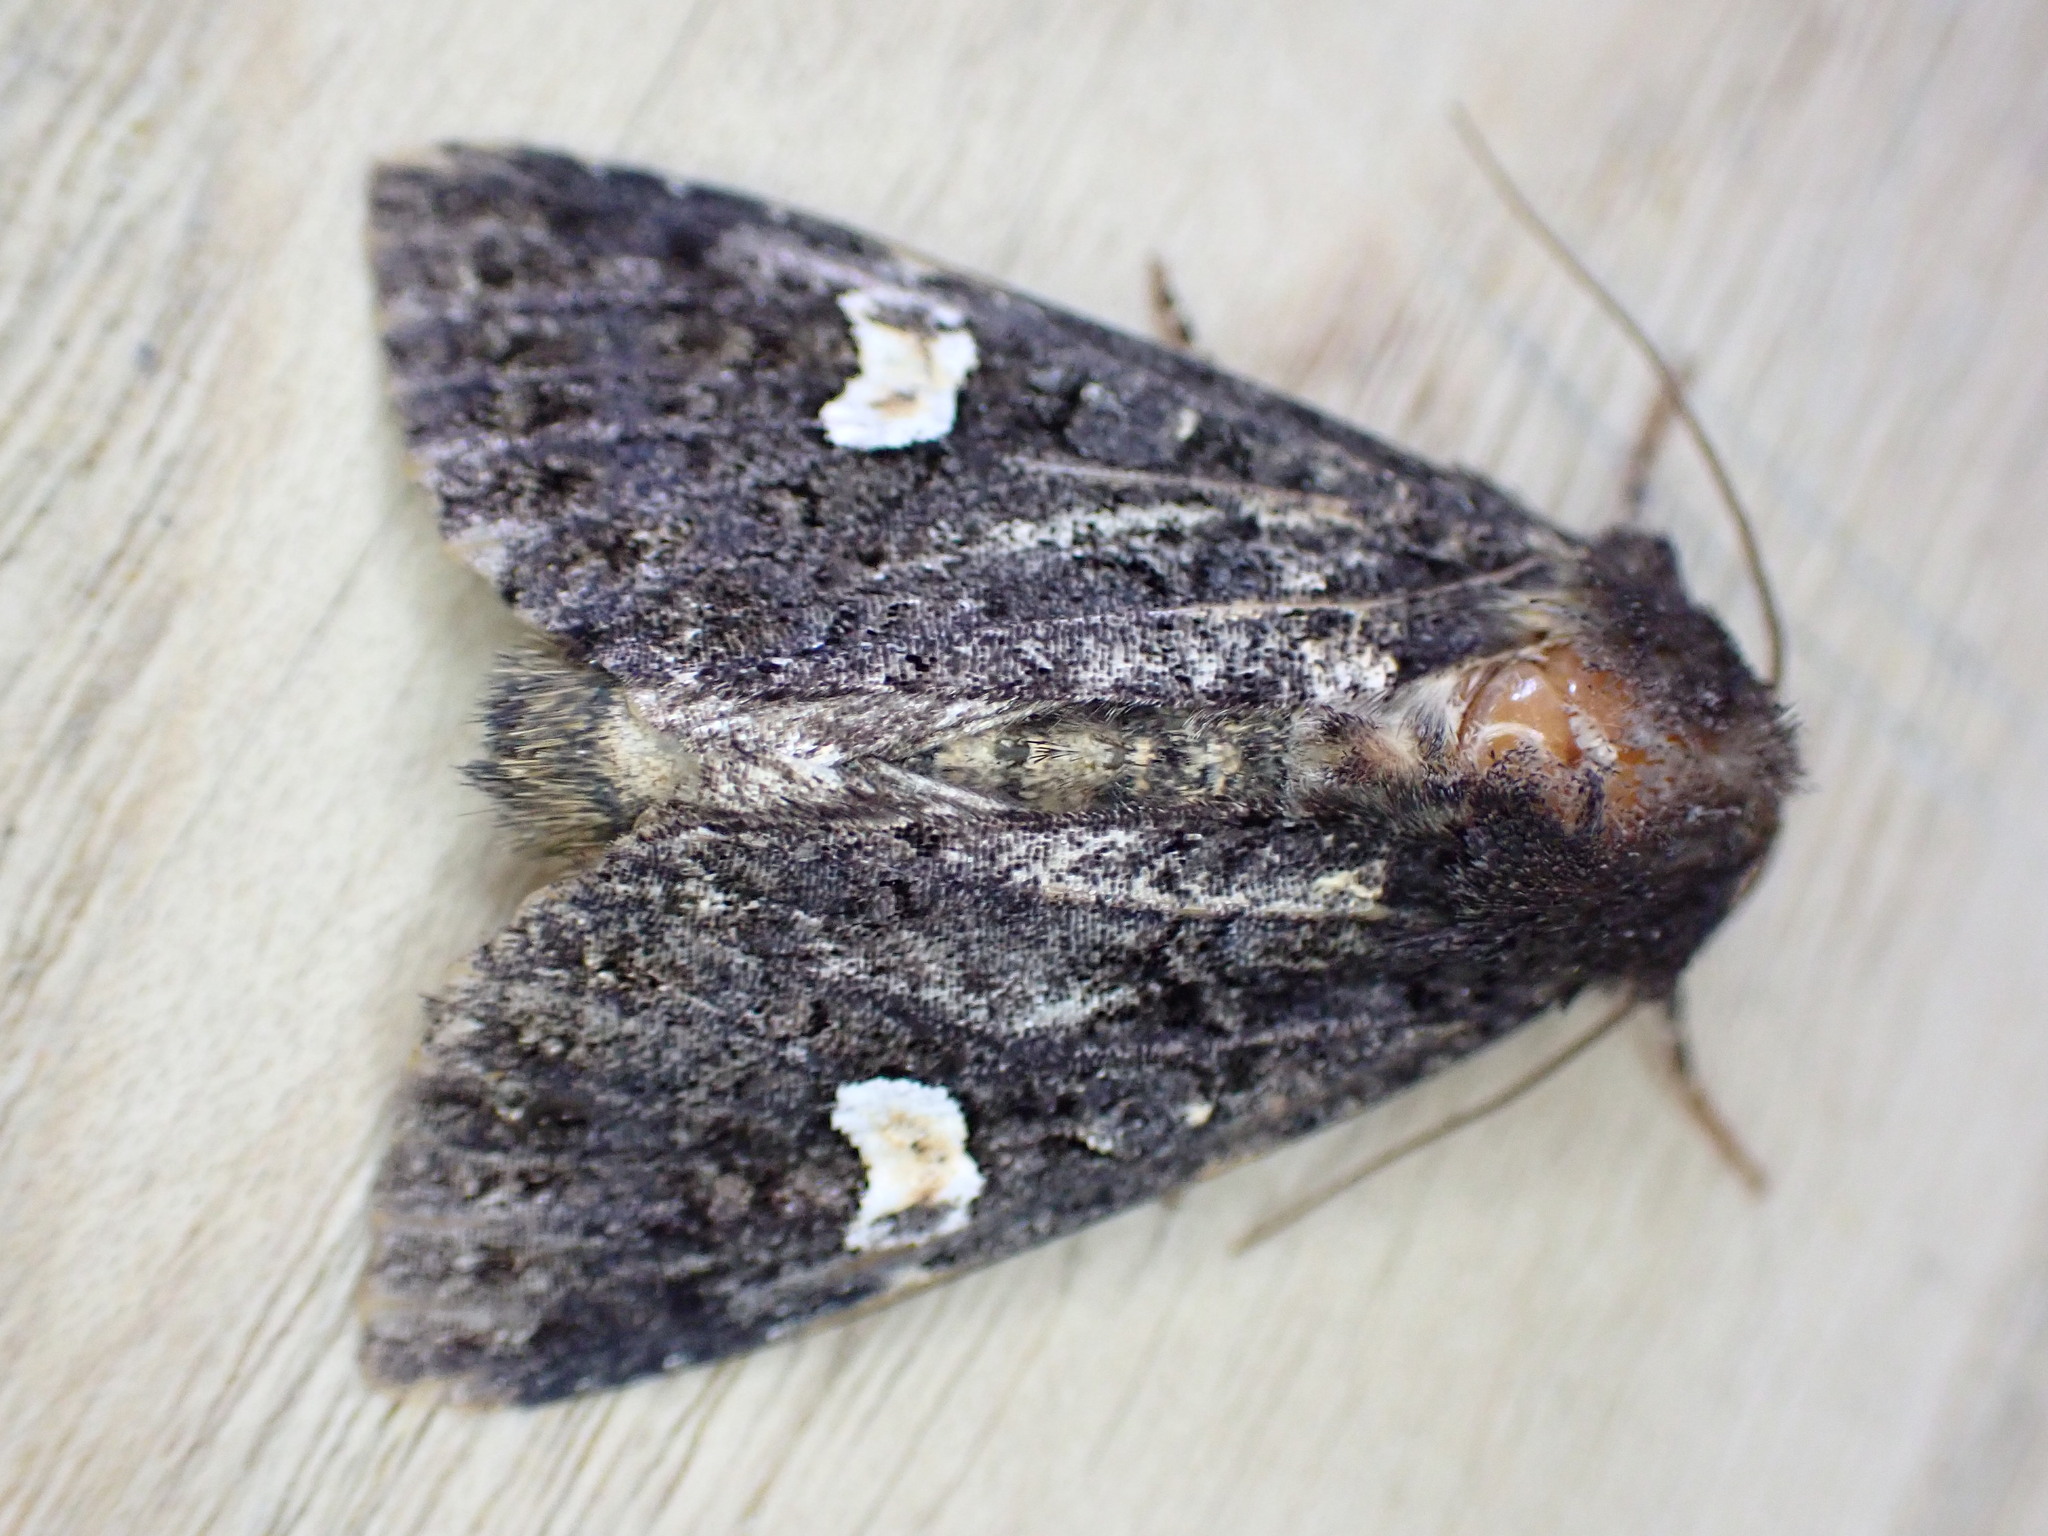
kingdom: Animalia
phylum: Arthropoda
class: Insecta
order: Lepidoptera
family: Noctuidae
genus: Melanchra
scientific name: Melanchra persicariae
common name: Dot moth
